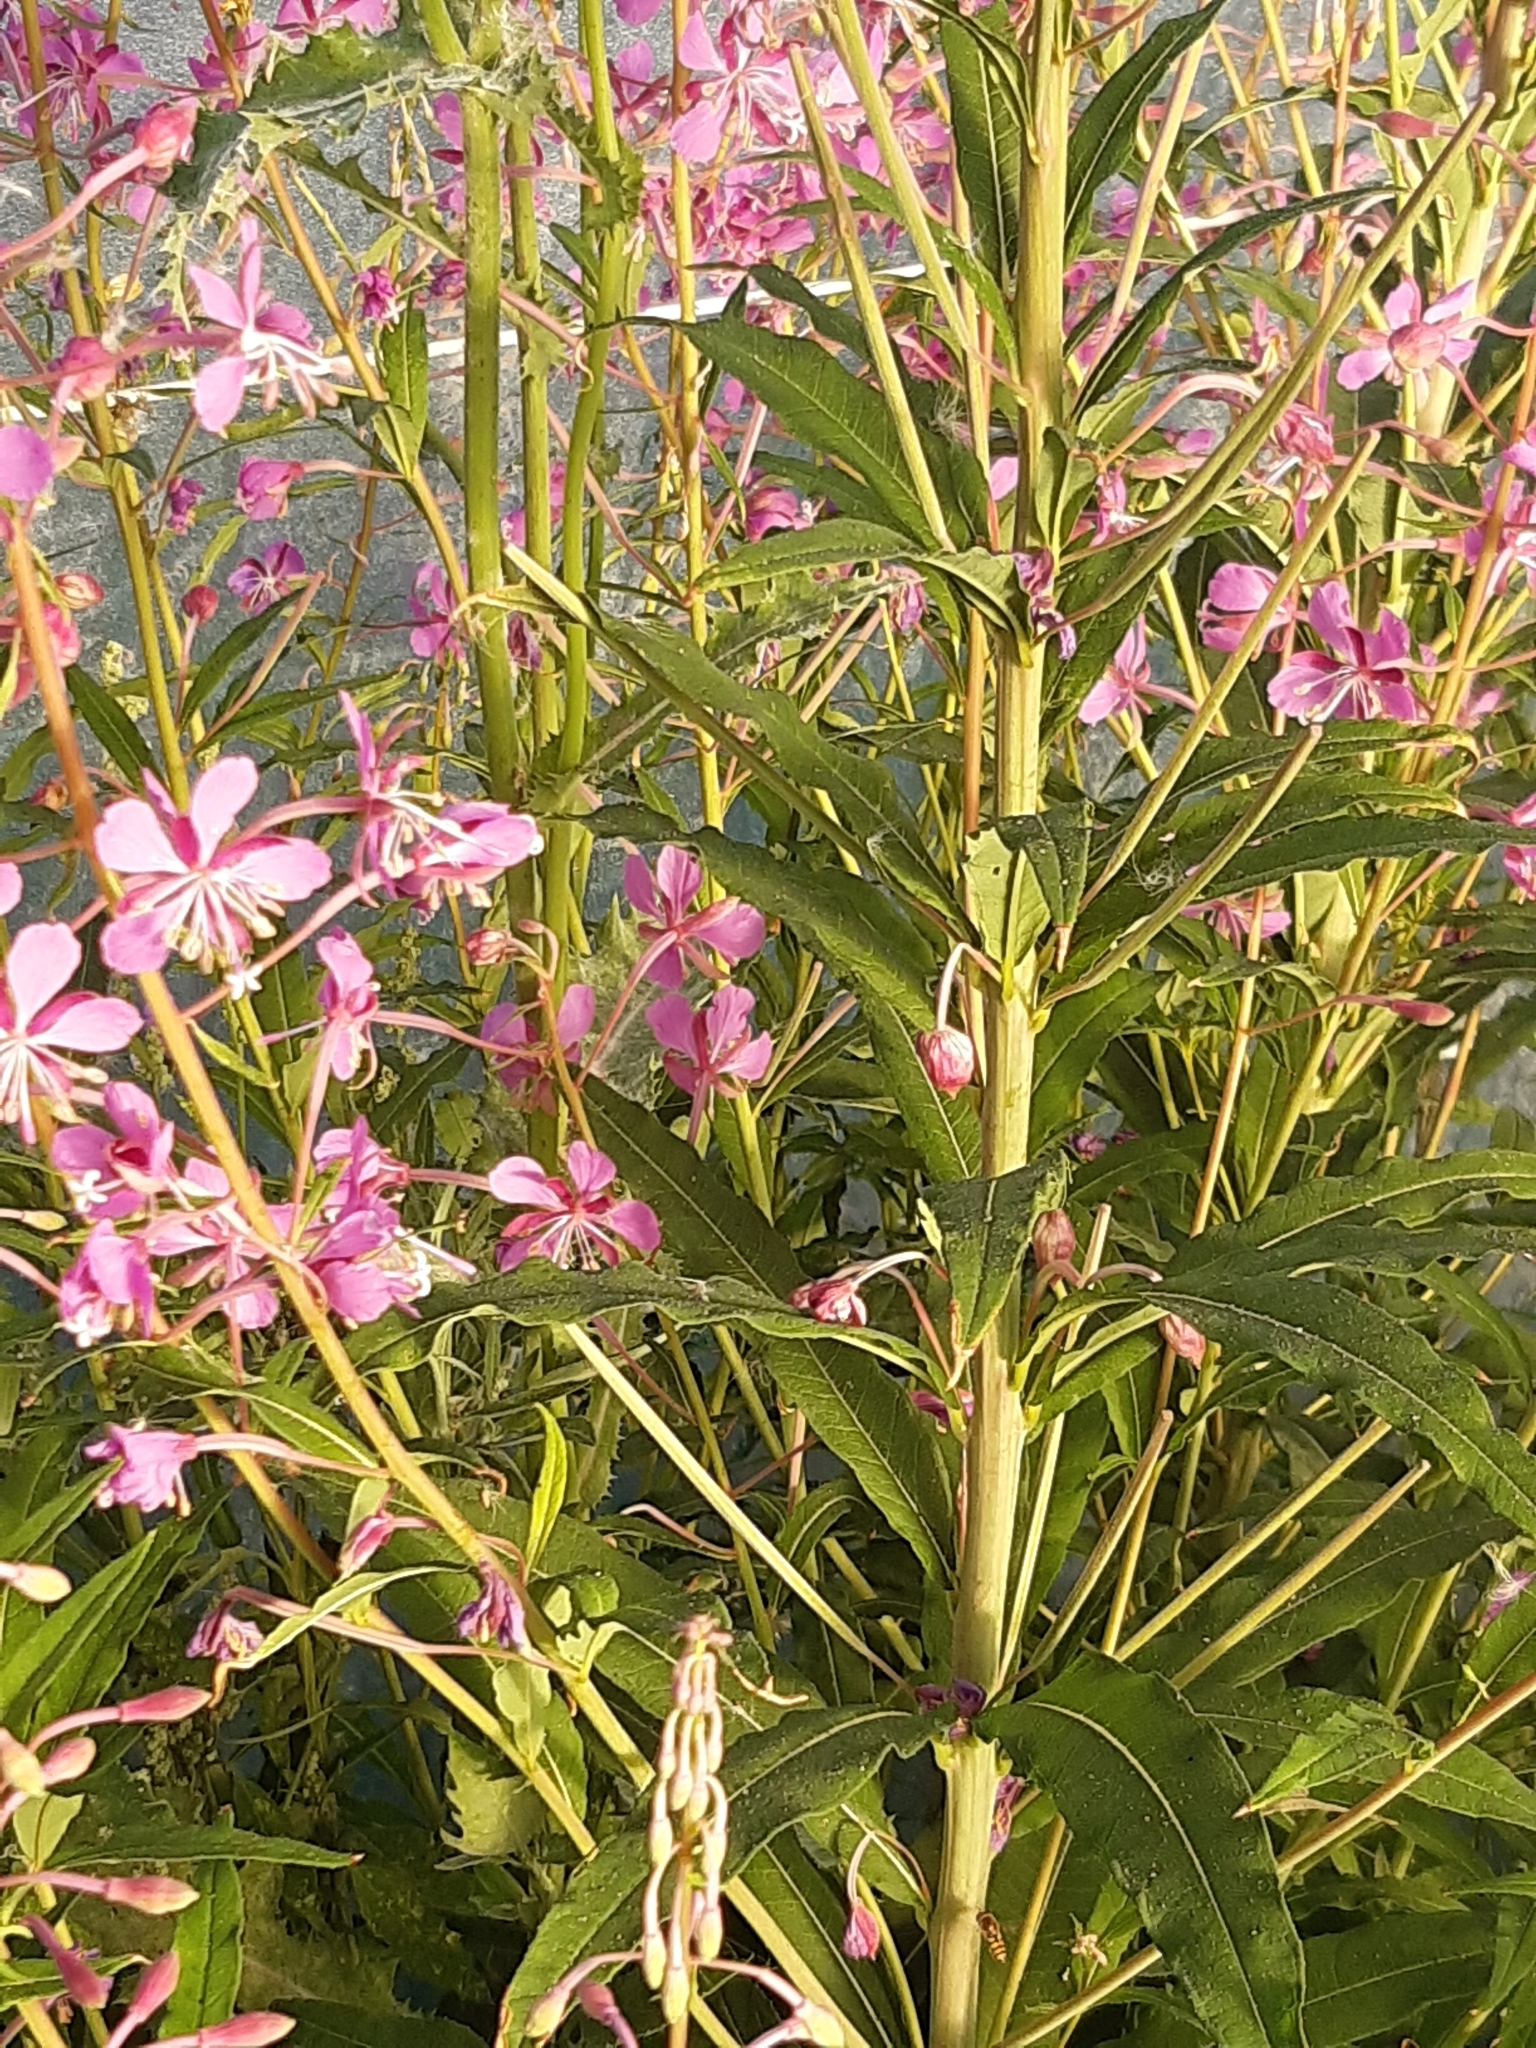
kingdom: Plantae
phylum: Tracheophyta
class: Magnoliopsida
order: Myrtales
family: Onagraceae
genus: Chamaenerion
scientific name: Chamaenerion angustifolium
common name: Fireweed
